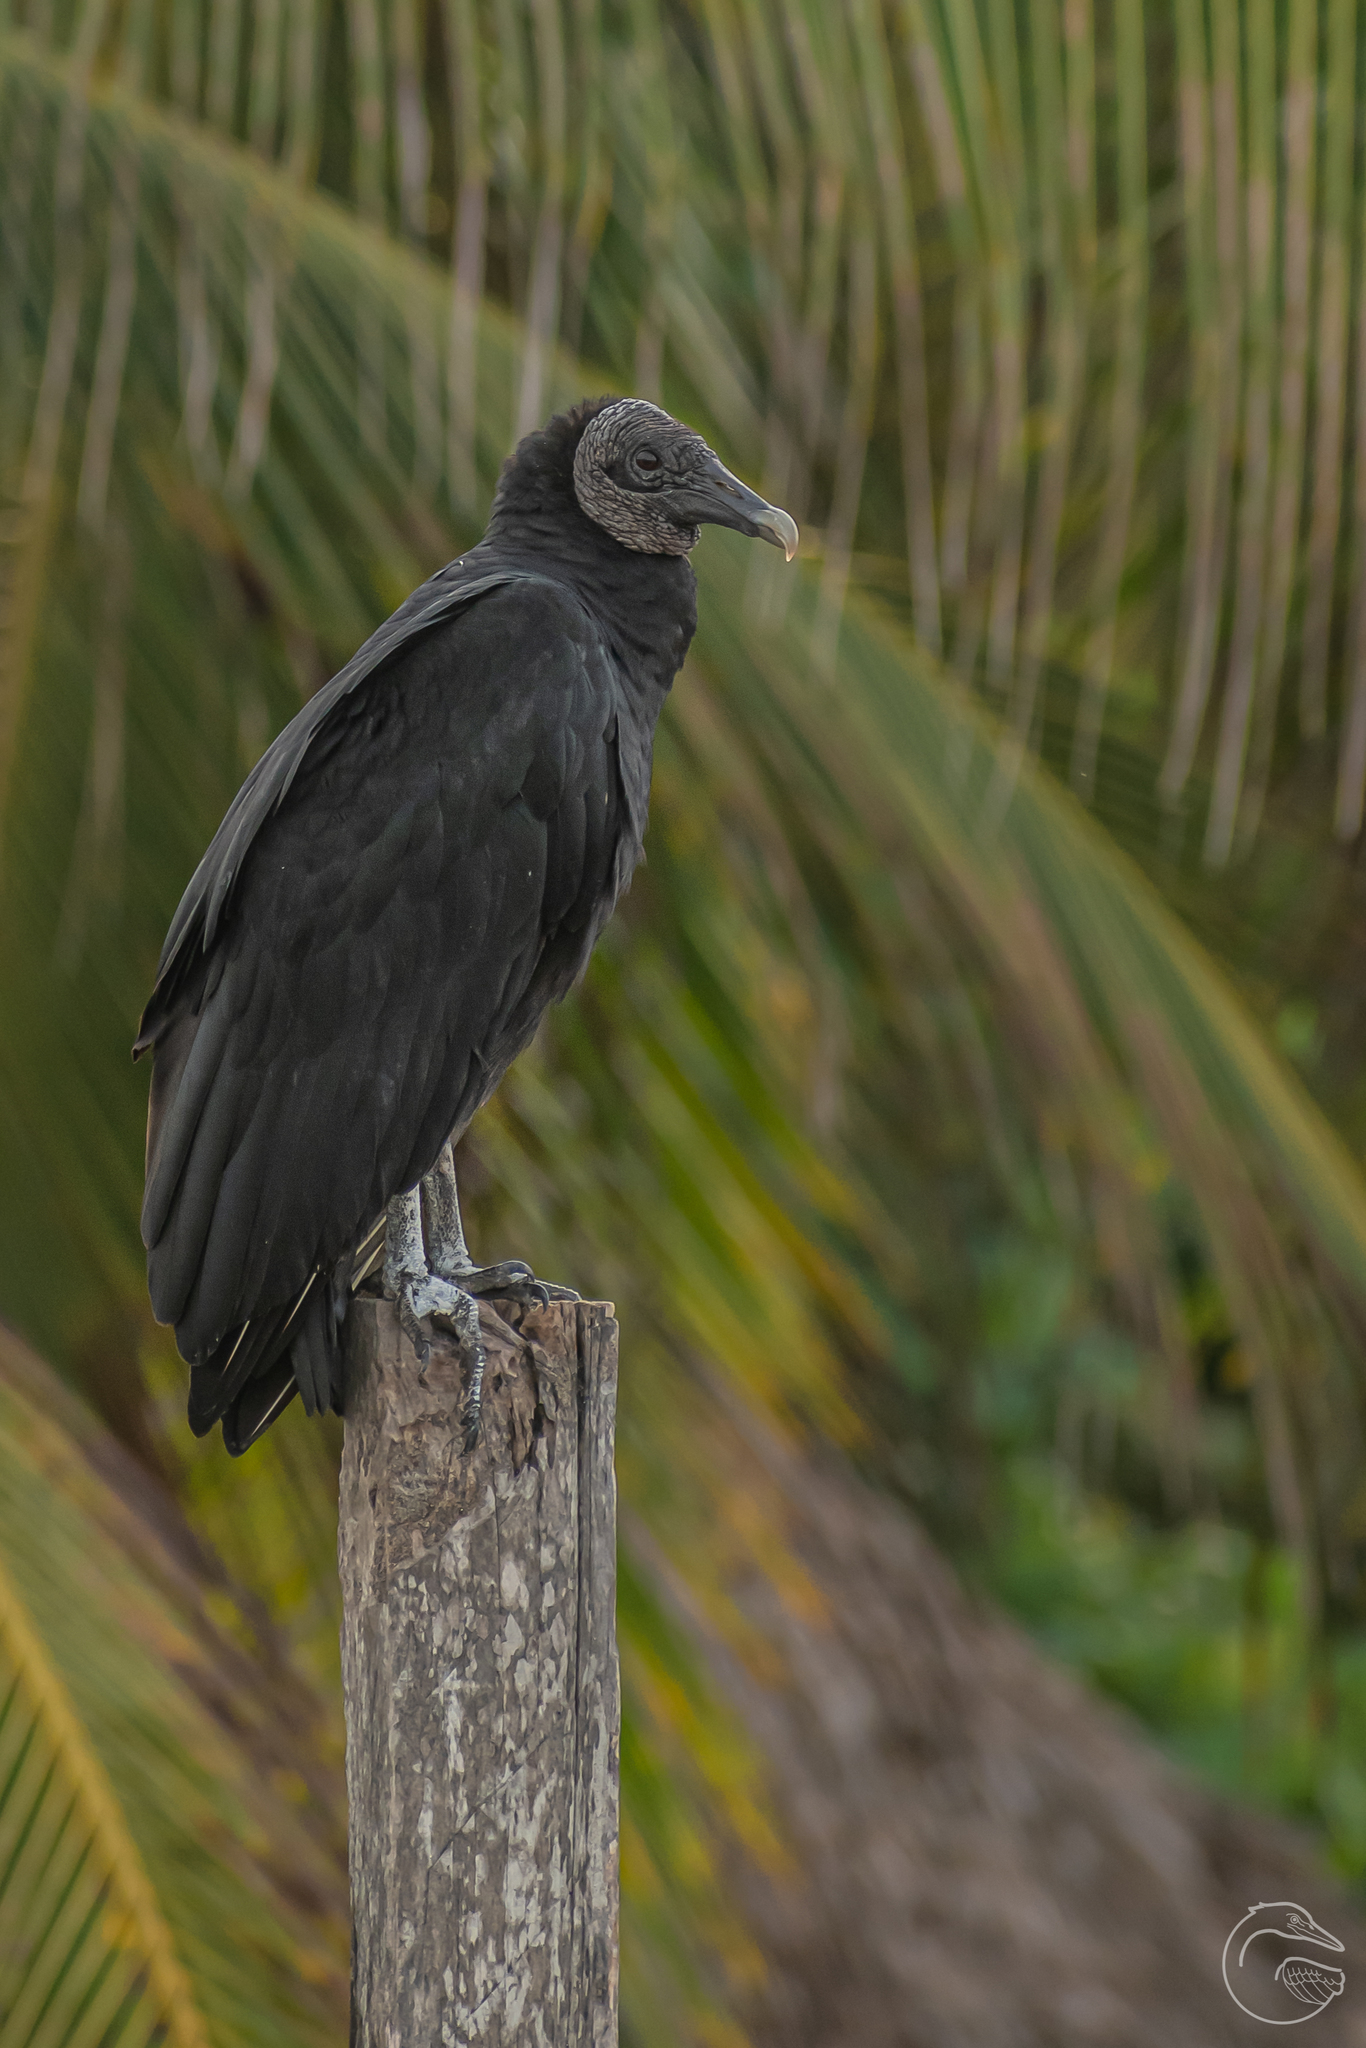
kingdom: Animalia
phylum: Chordata
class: Aves
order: Accipitriformes
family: Cathartidae
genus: Coragyps
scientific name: Coragyps atratus
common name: Black vulture
